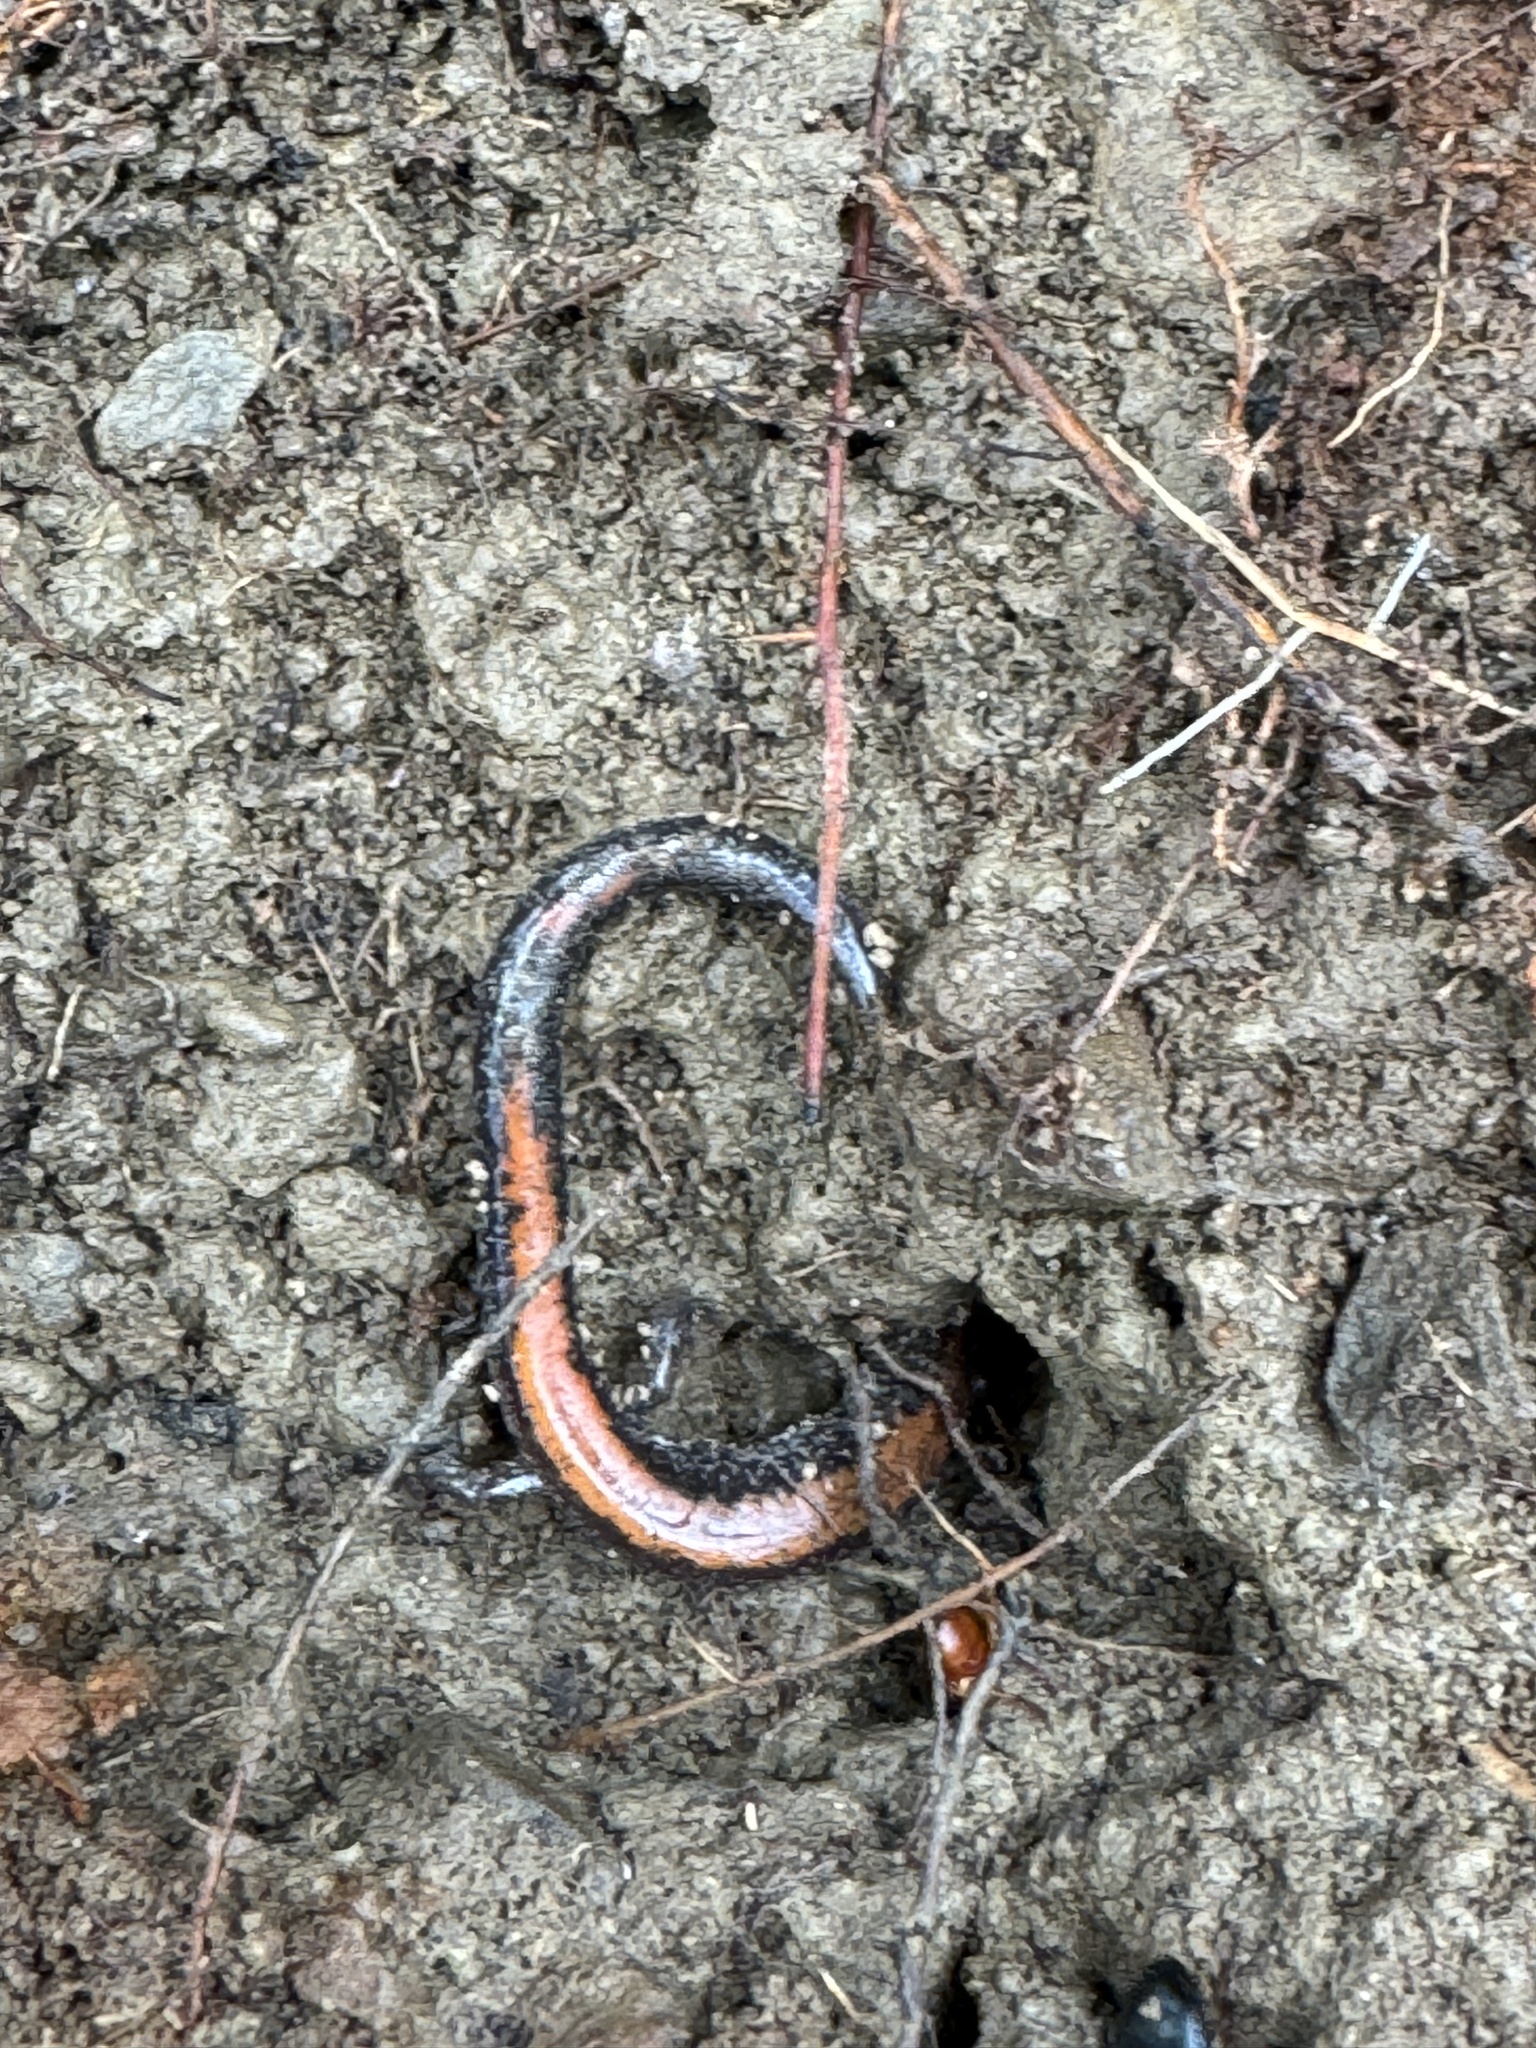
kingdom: Animalia
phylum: Chordata
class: Amphibia
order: Caudata
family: Plethodontidae
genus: Plethodon
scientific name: Plethodon cinereus
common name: Redback salamander
